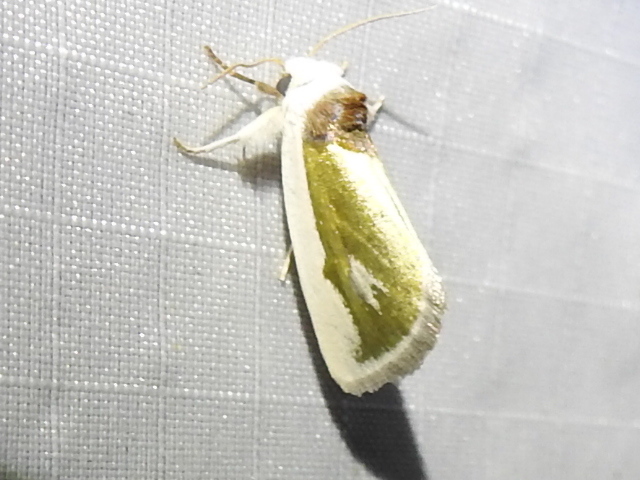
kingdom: Animalia
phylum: Arthropoda
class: Insecta
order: Lepidoptera
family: Noctuidae
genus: Neumoegenia
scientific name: Neumoegenia poetica
